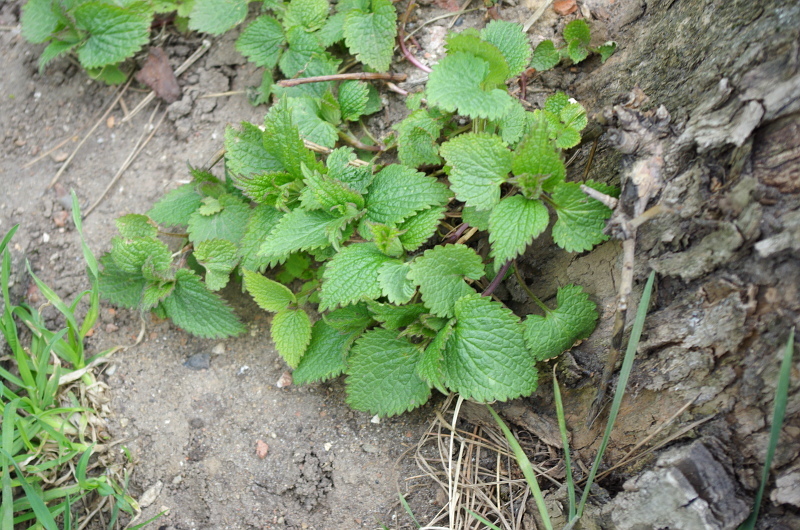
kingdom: Plantae
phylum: Tracheophyta
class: Magnoliopsida
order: Lamiales
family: Lamiaceae
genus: Lamium
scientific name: Lamium album
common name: White dead-nettle
